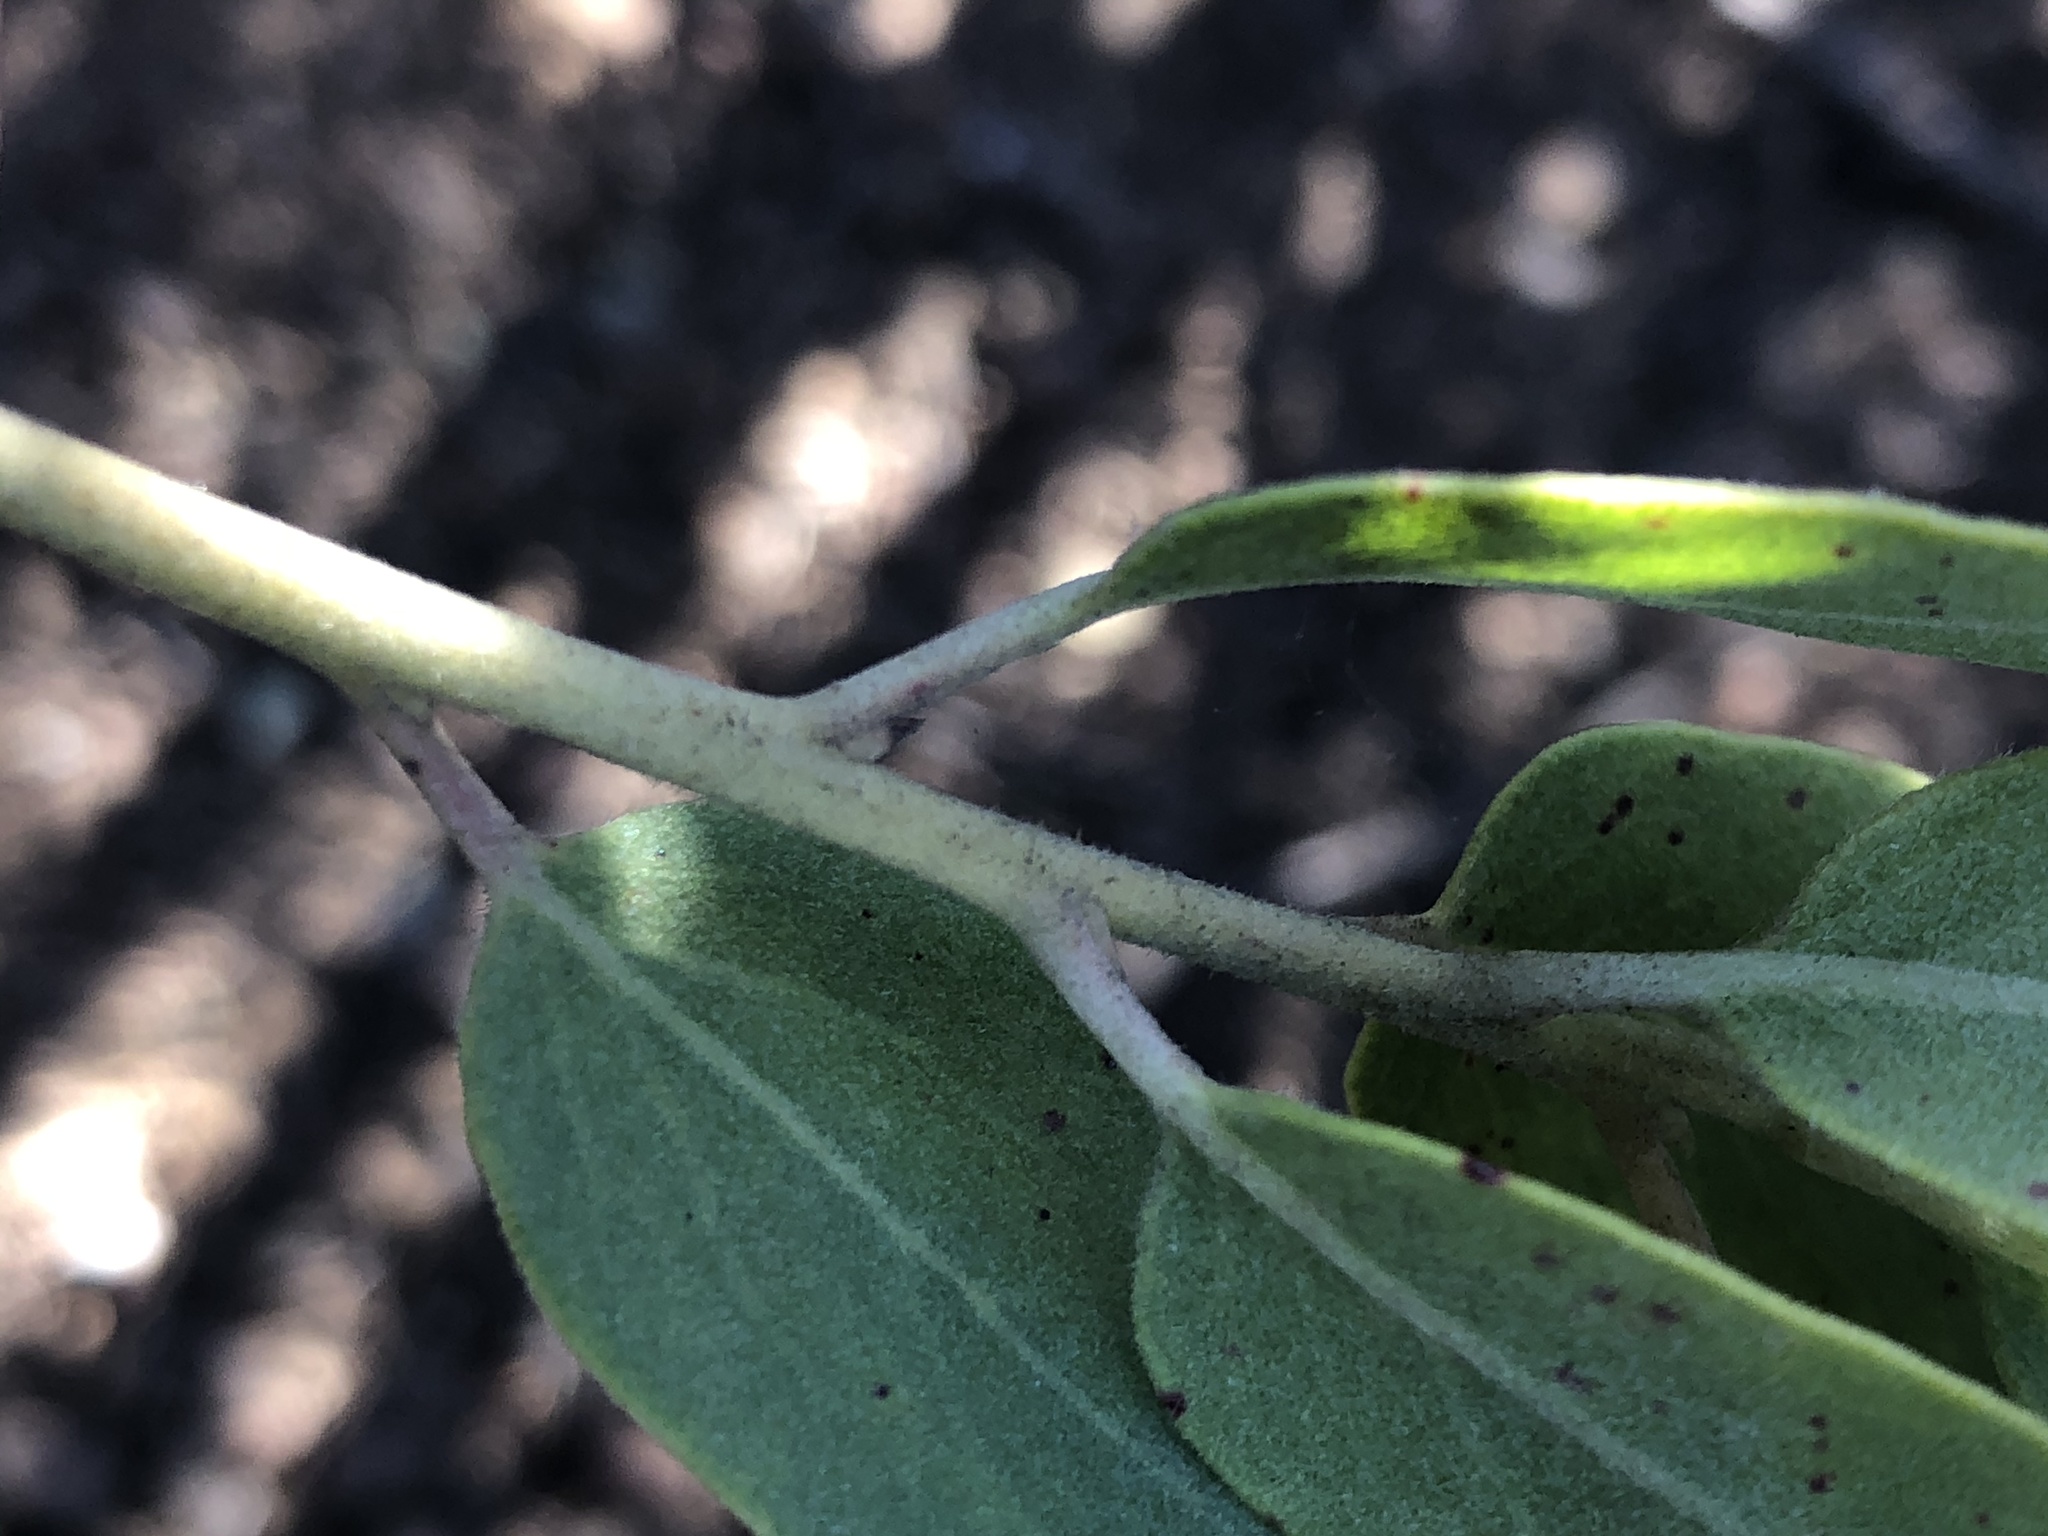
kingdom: Plantae
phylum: Tracheophyta
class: Magnoliopsida
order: Ericales
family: Ericaceae
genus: Arctostaphylos
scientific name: Arctostaphylos glandulosa
